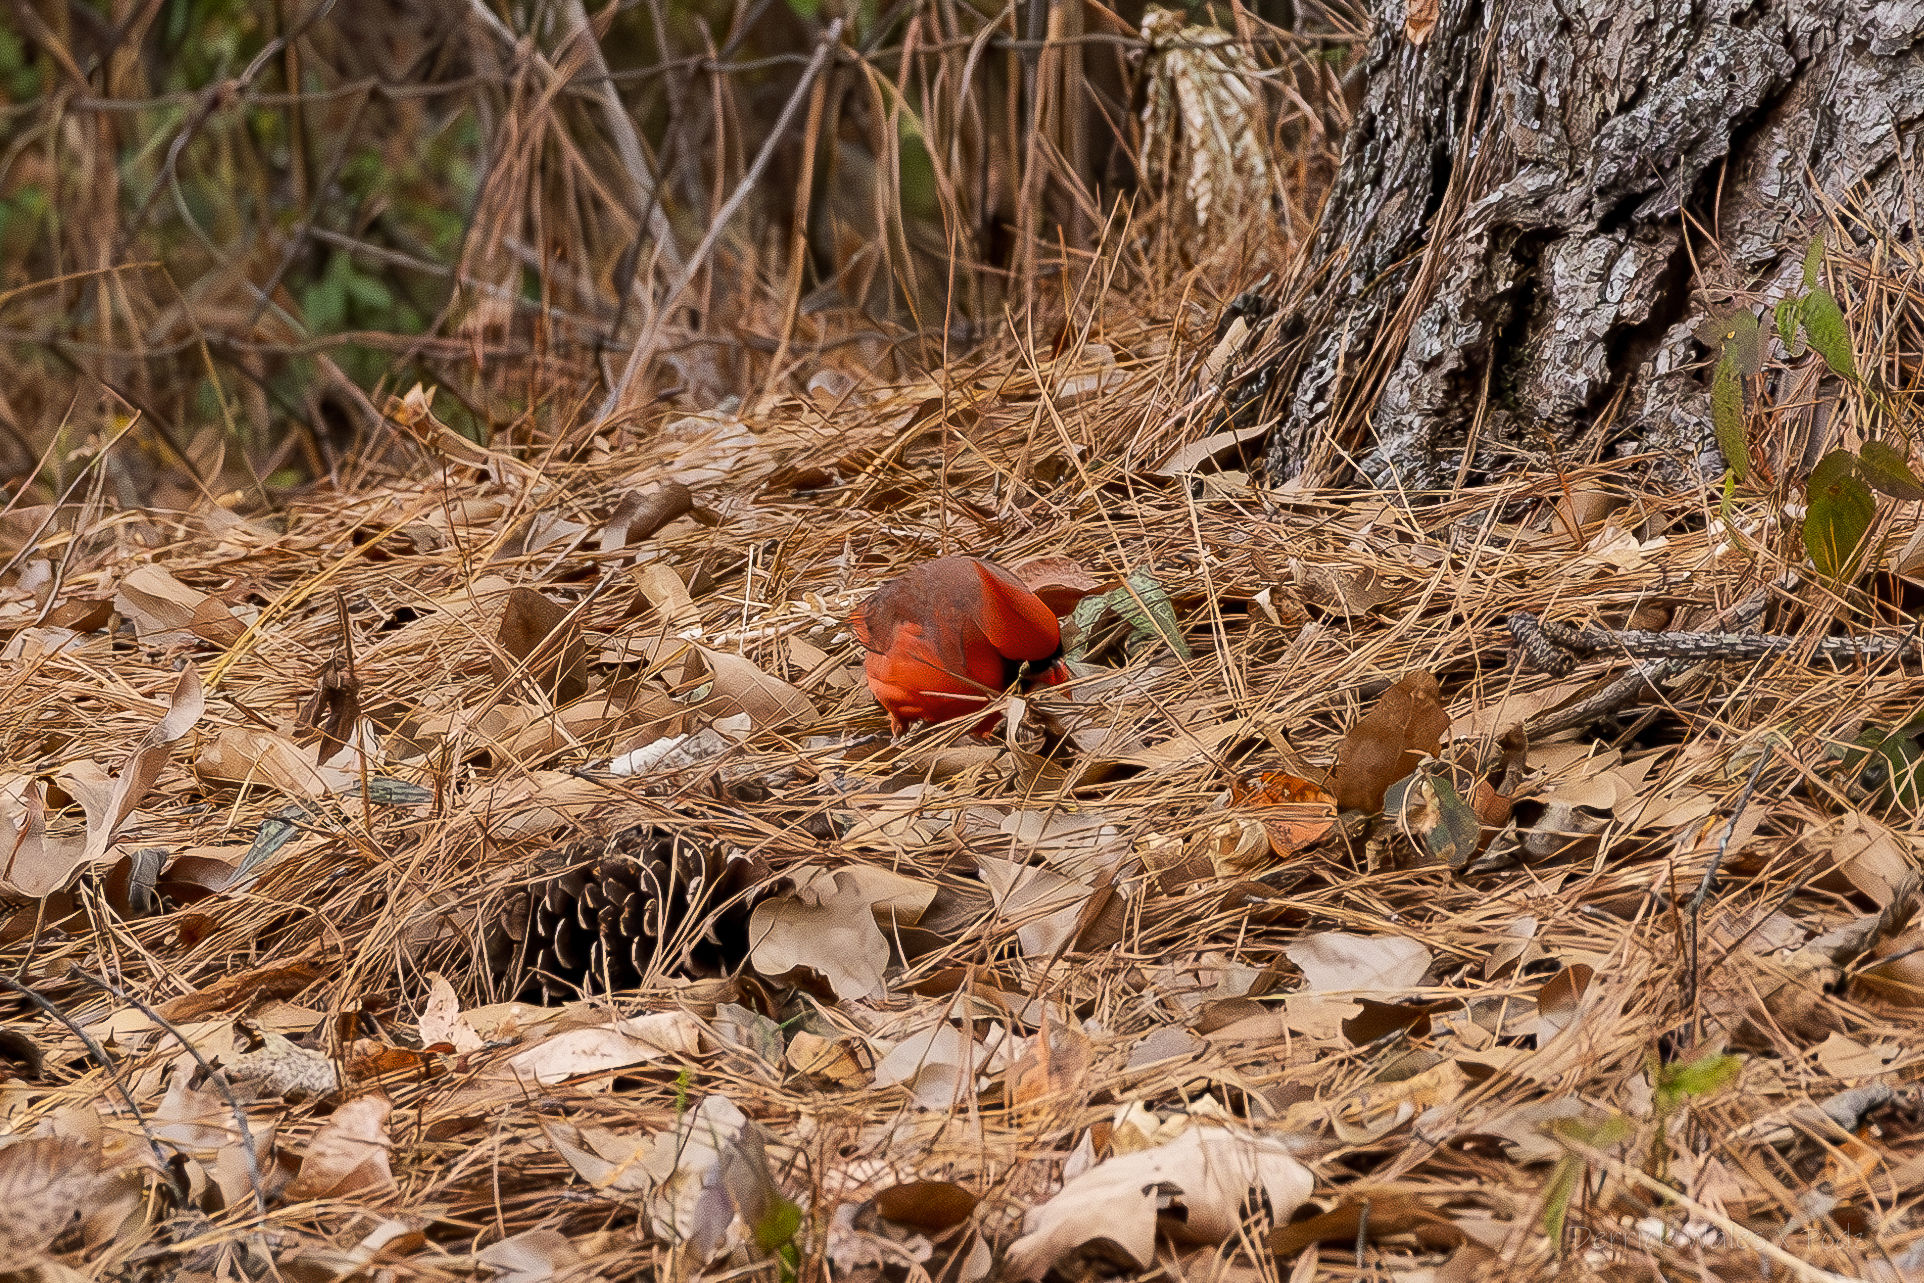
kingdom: Animalia
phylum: Chordata
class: Aves
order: Passeriformes
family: Cardinalidae
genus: Cardinalis
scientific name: Cardinalis cardinalis
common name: Northern cardinal
